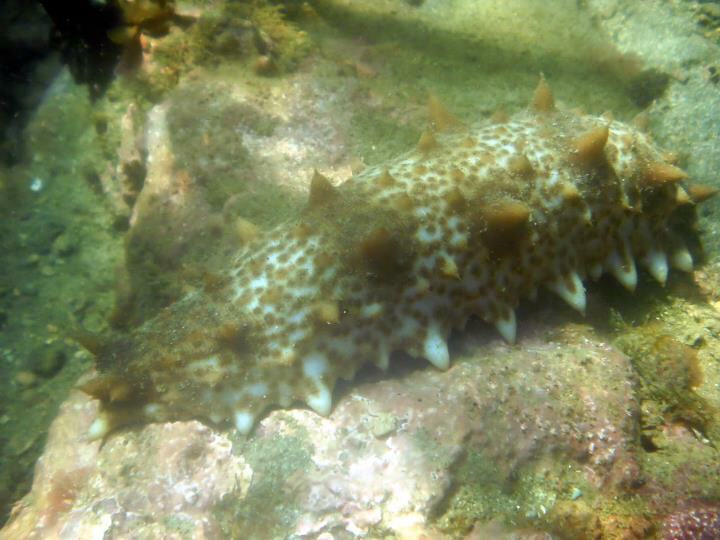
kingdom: Animalia
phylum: Echinodermata
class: Holothuroidea
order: Synallactida
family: Stichopodidae
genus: Australostichopus
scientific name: Australostichopus mollis
